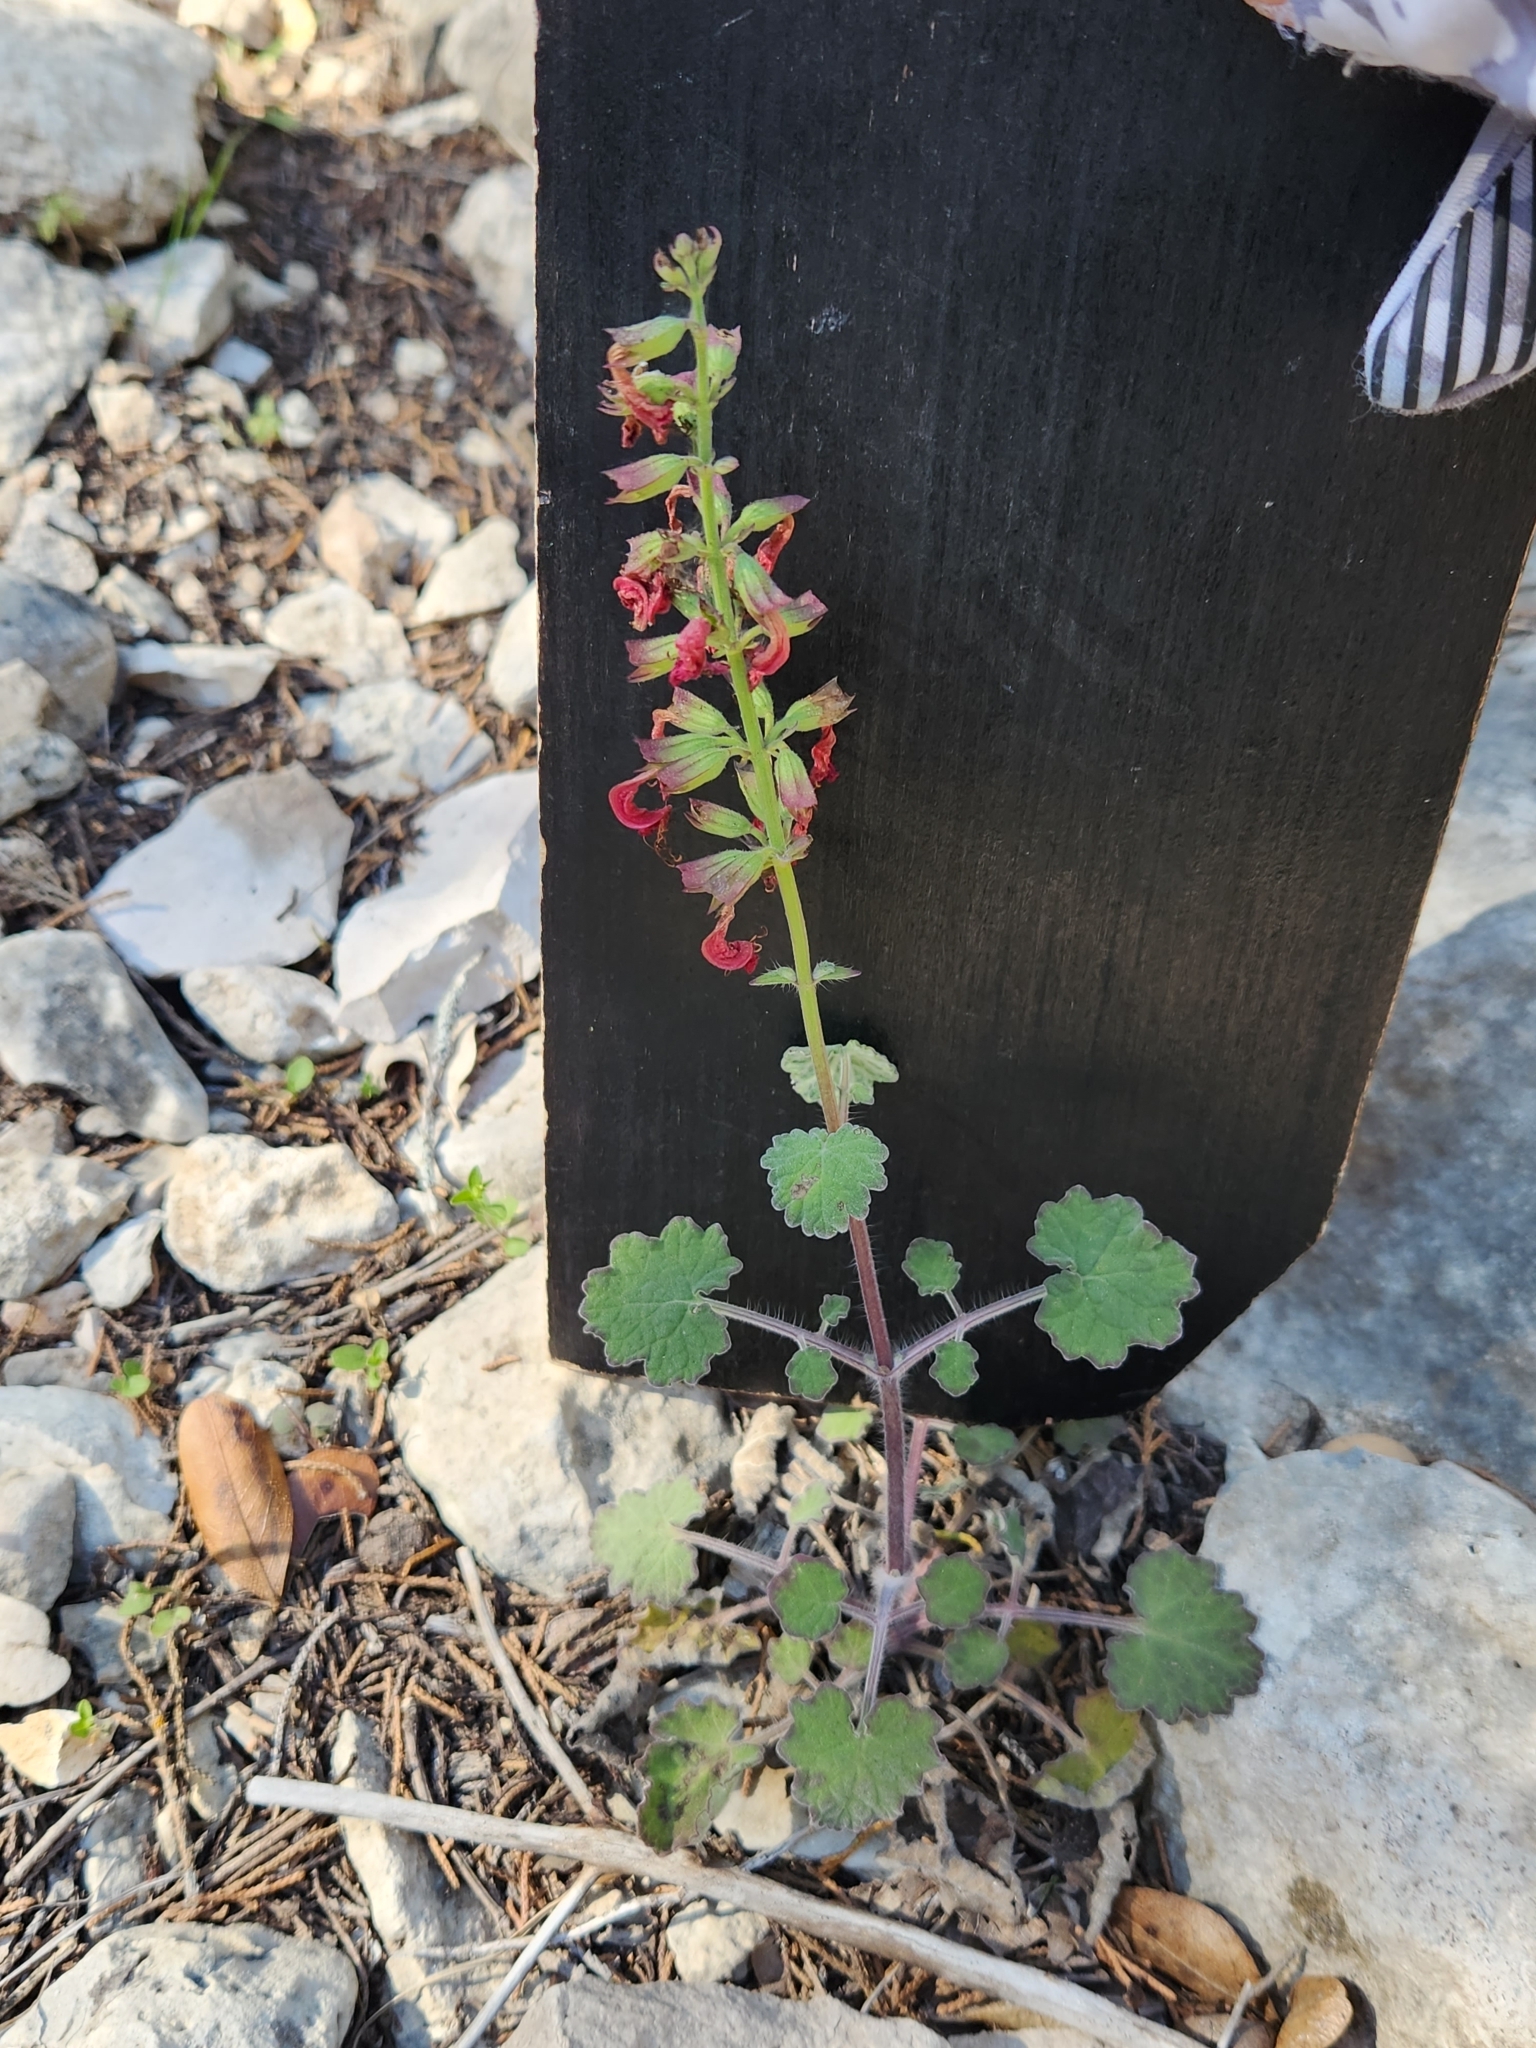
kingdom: Plantae
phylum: Tracheophyta
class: Magnoliopsida
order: Lamiales
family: Lamiaceae
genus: Salvia
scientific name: Salvia roemeriana
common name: Cedar sage
